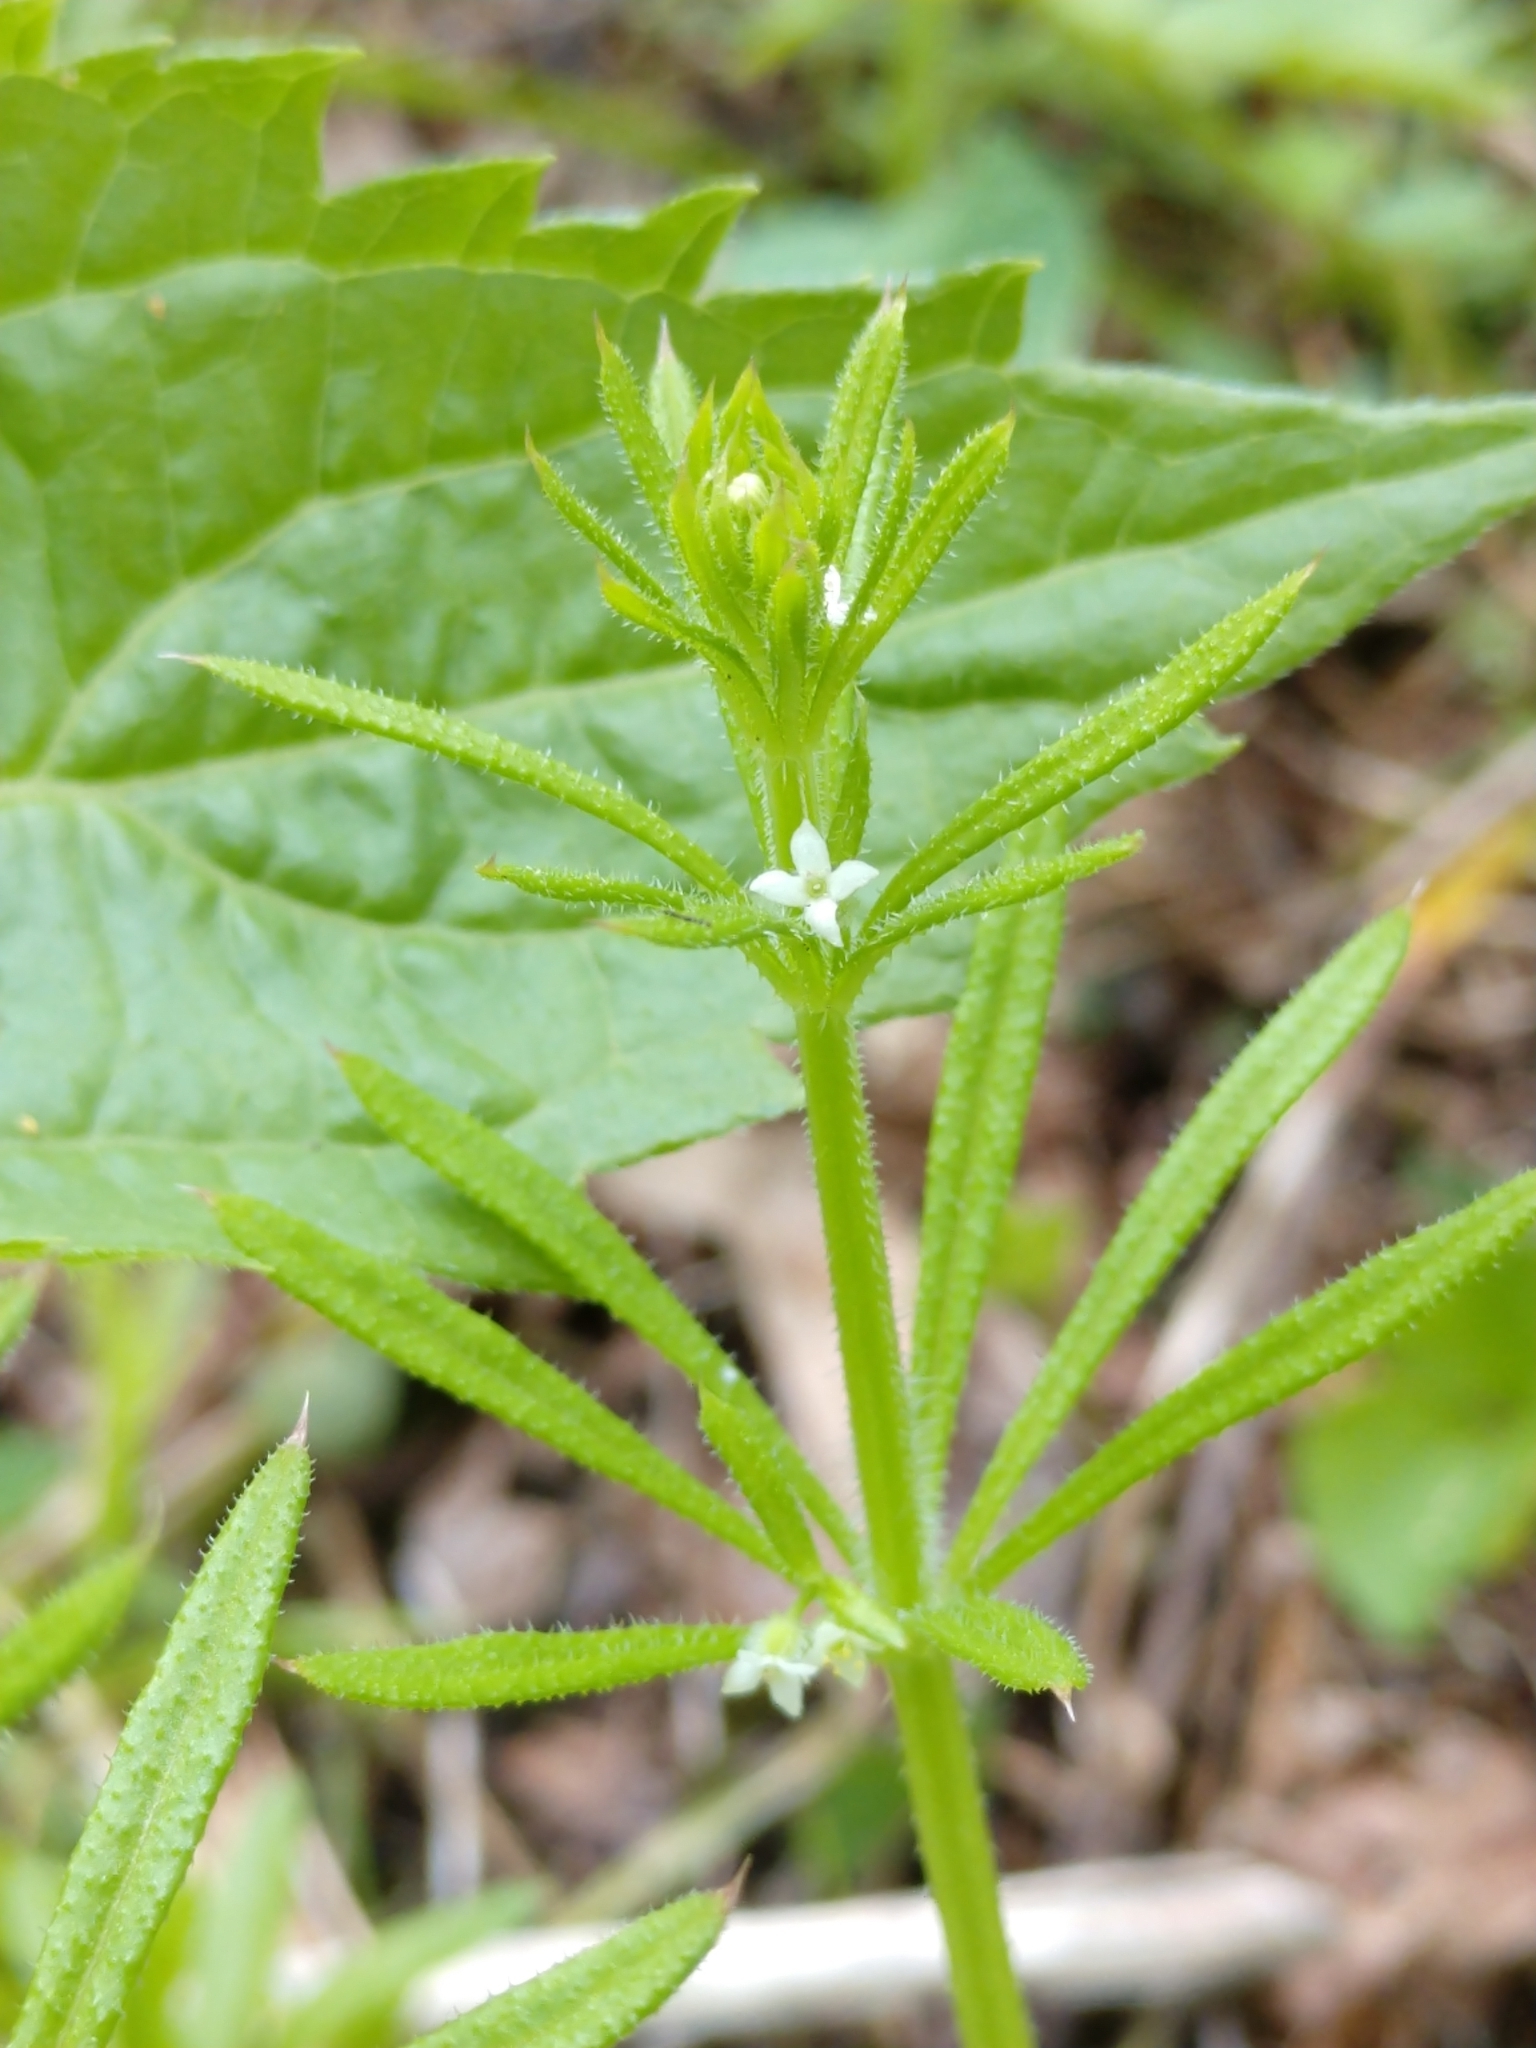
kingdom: Plantae
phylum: Tracheophyta
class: Magnoliopsida
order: Gentianales
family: Rubiaceae
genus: Galium
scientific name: Galium aparine
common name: Cleavers
